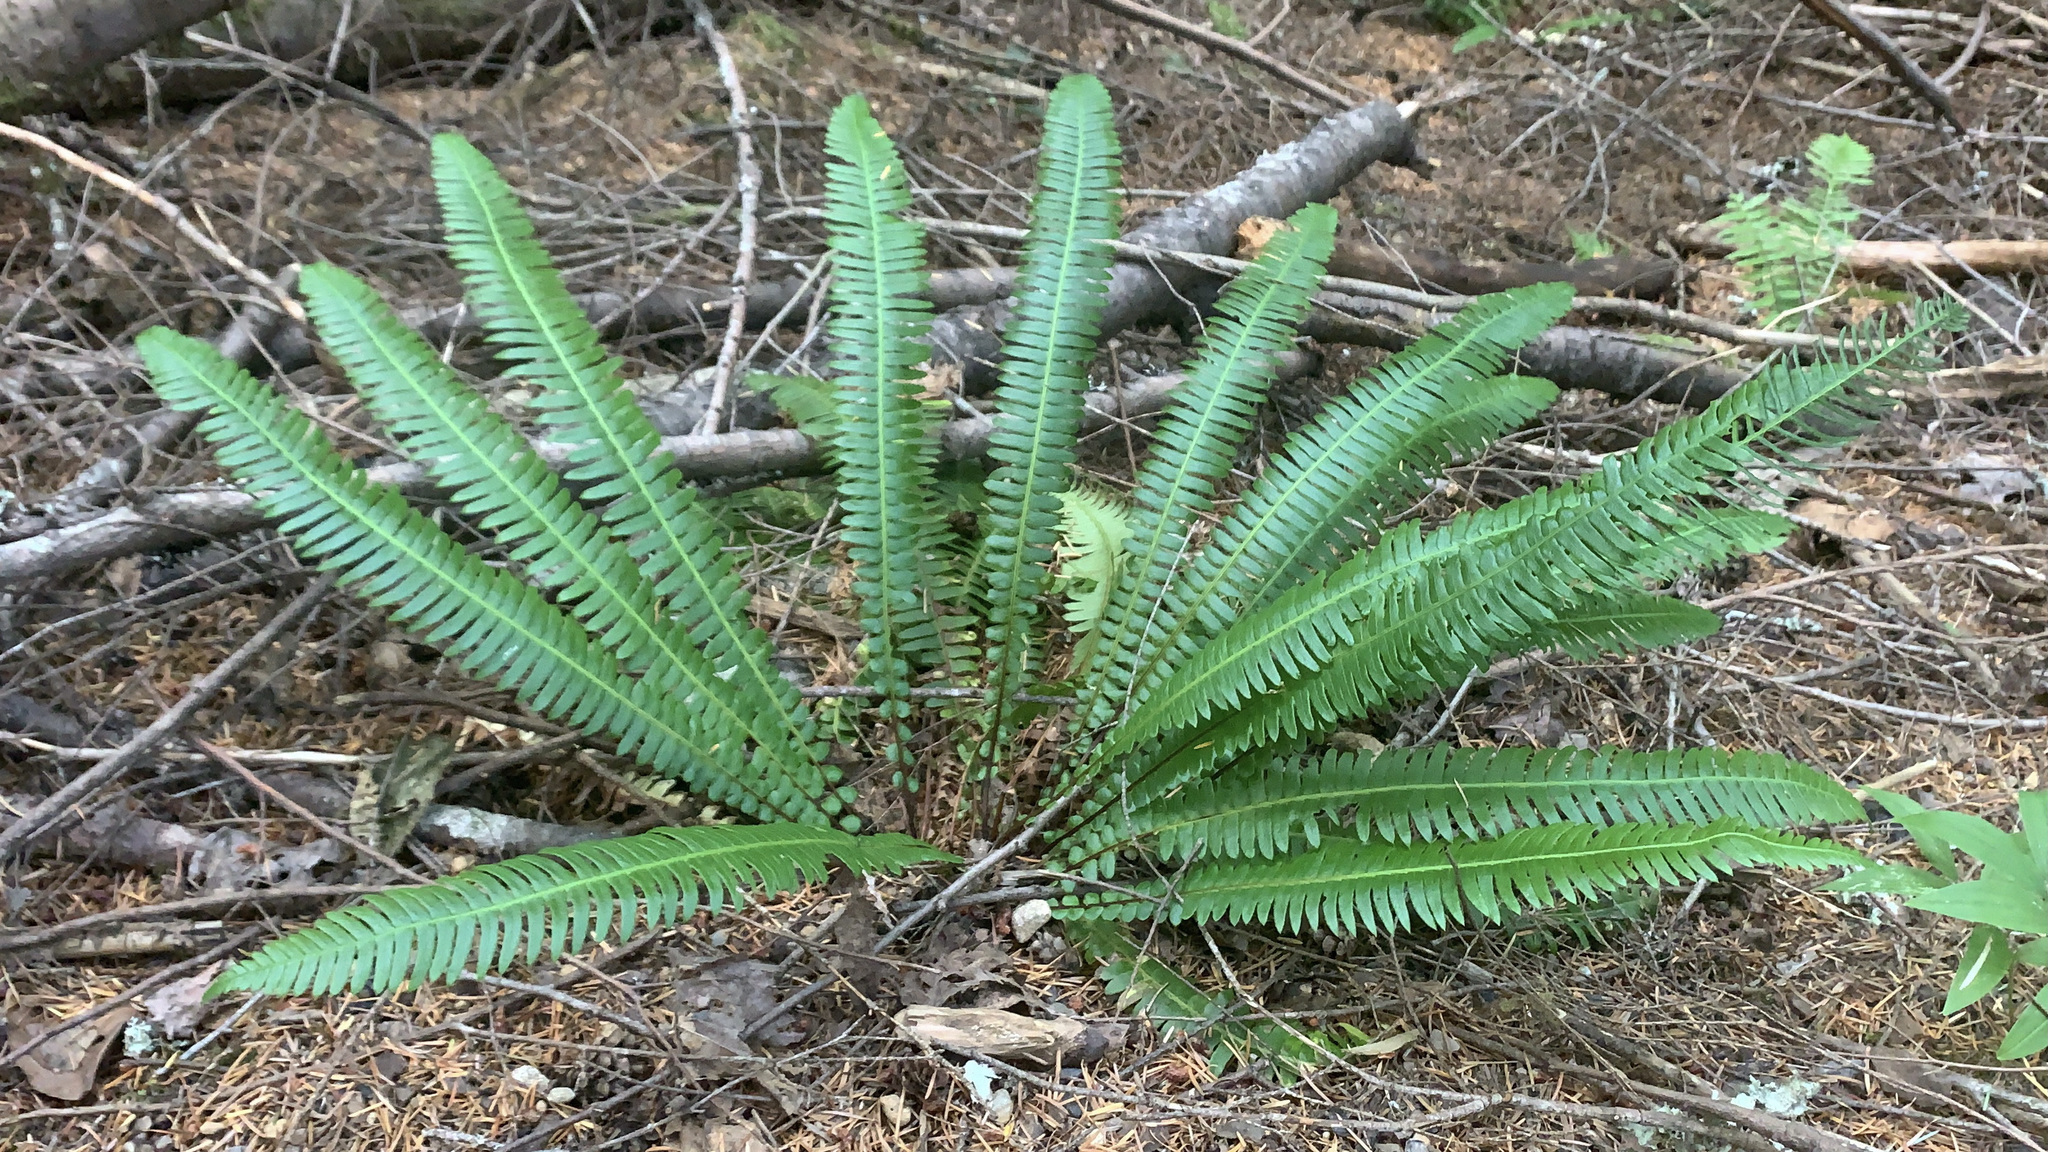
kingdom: Plantae
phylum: Tracheophyta
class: Polypodiopsida
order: Polypodiales
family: Blechnaceae
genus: Struthiopteris
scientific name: Struthiopteris spicant
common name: Deer fern
